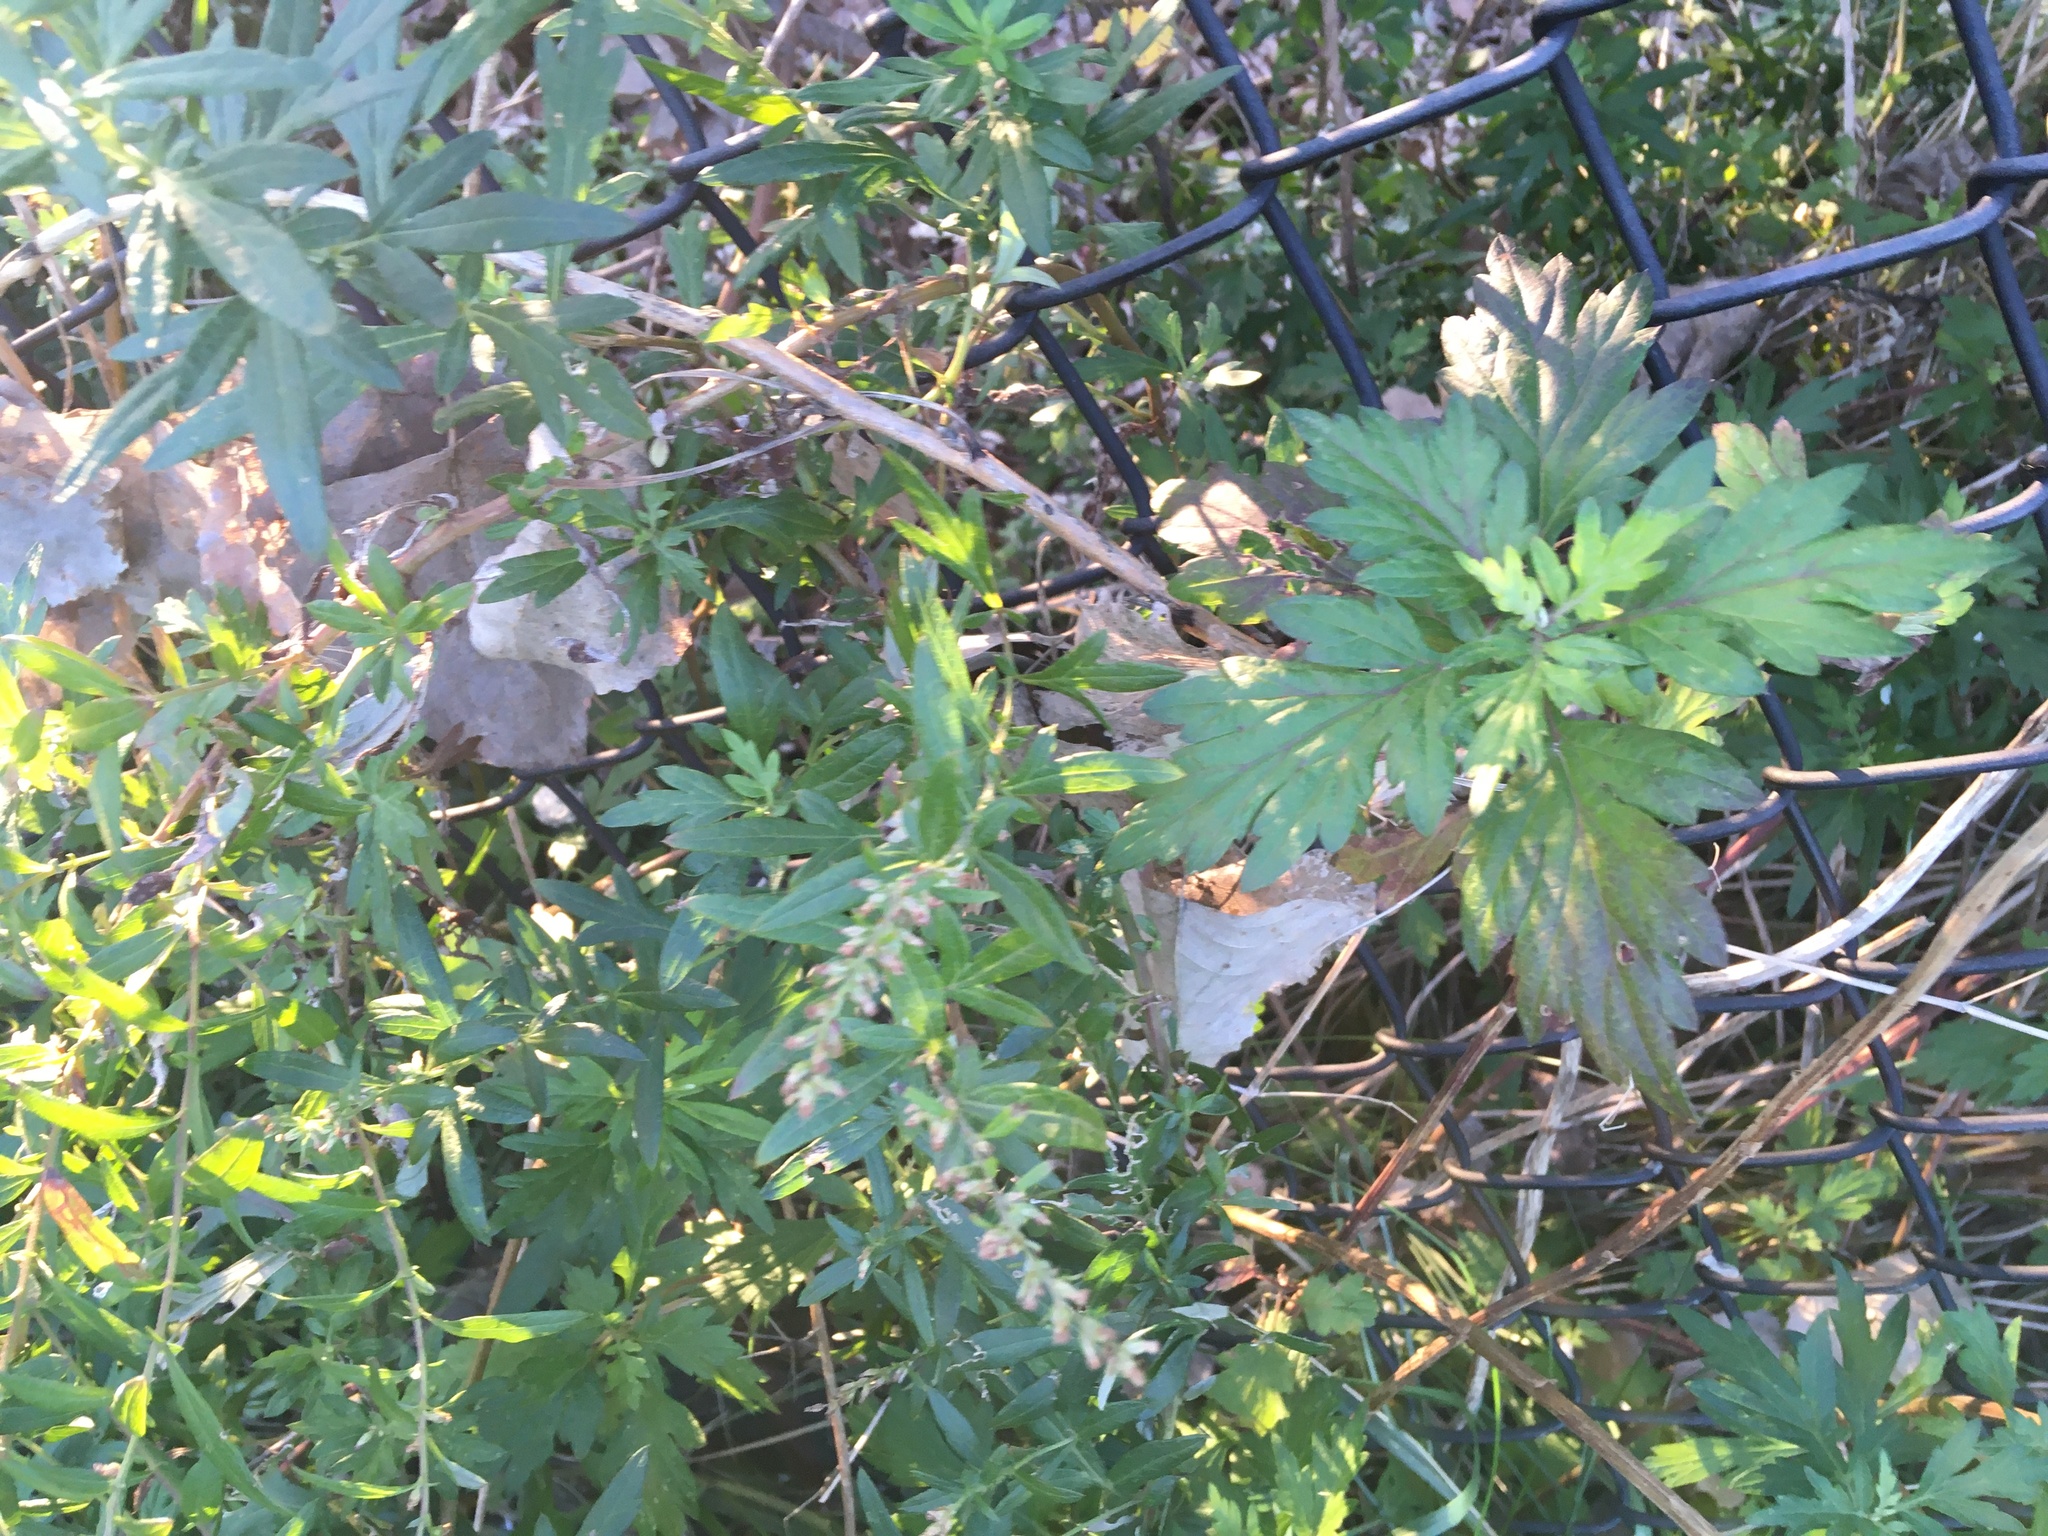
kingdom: Plantae
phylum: Tracheophyta
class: Magnoliopsida
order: Asterales
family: Asteraceae
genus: Artemisia
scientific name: Artemisia vulgaris
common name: Mugwort
